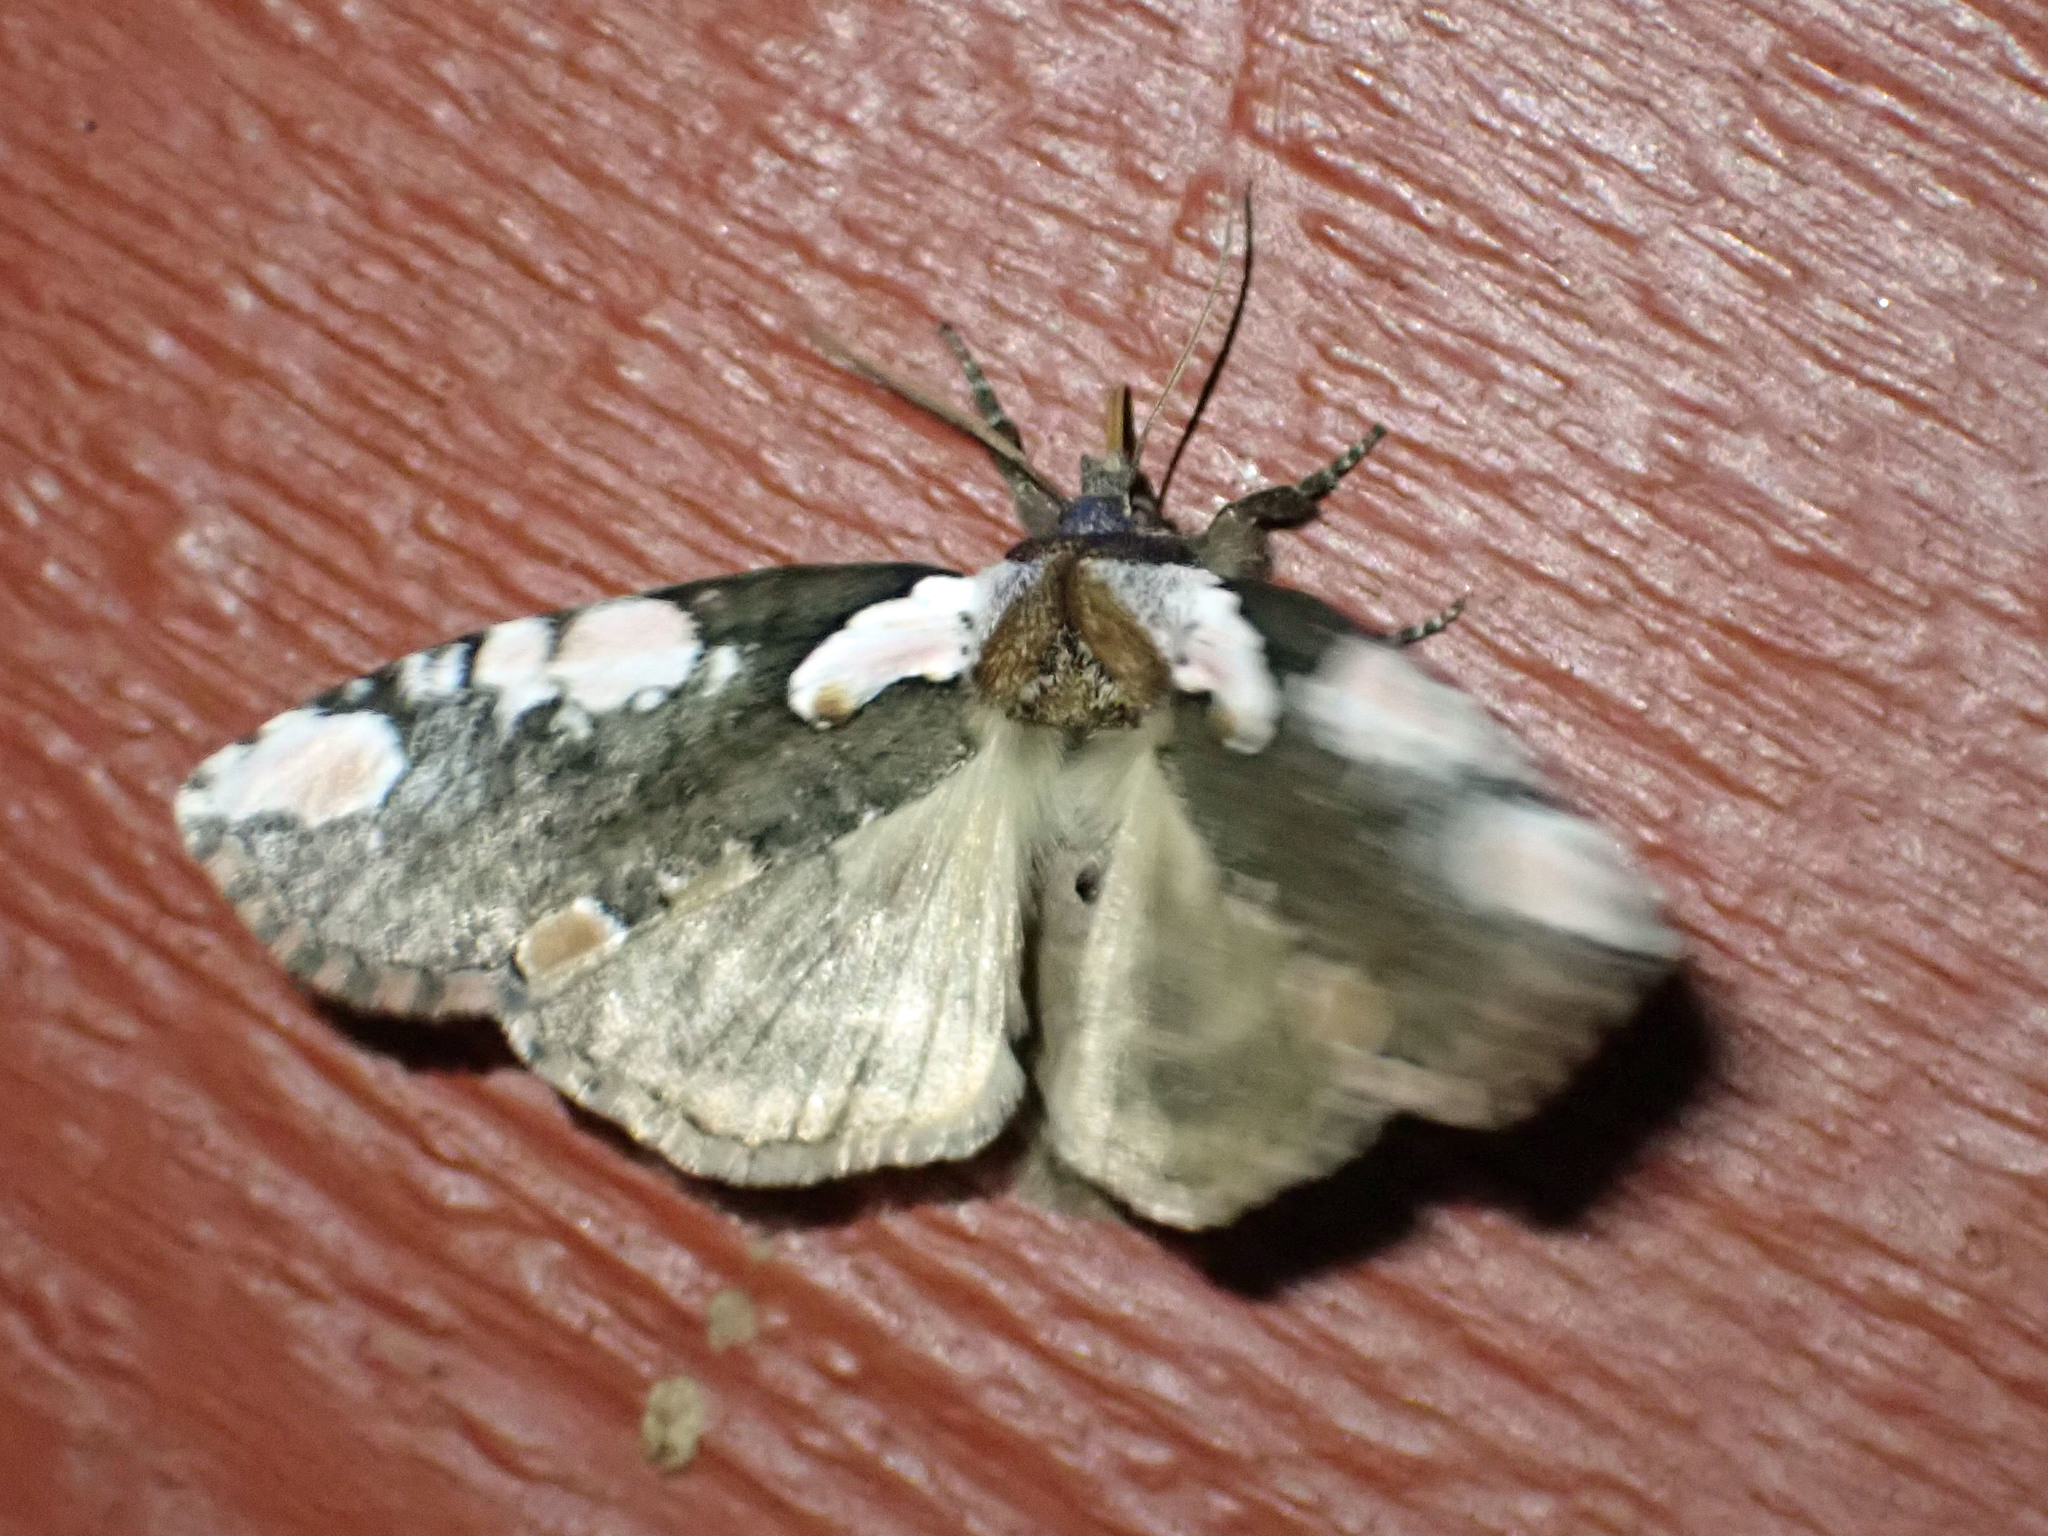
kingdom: Animalia
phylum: Arthropoda
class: Insecta
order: Lepidoptera
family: Drepanidae
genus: Euthyatira
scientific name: Euthyatira pudens
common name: Dogwood thyatirid moth
